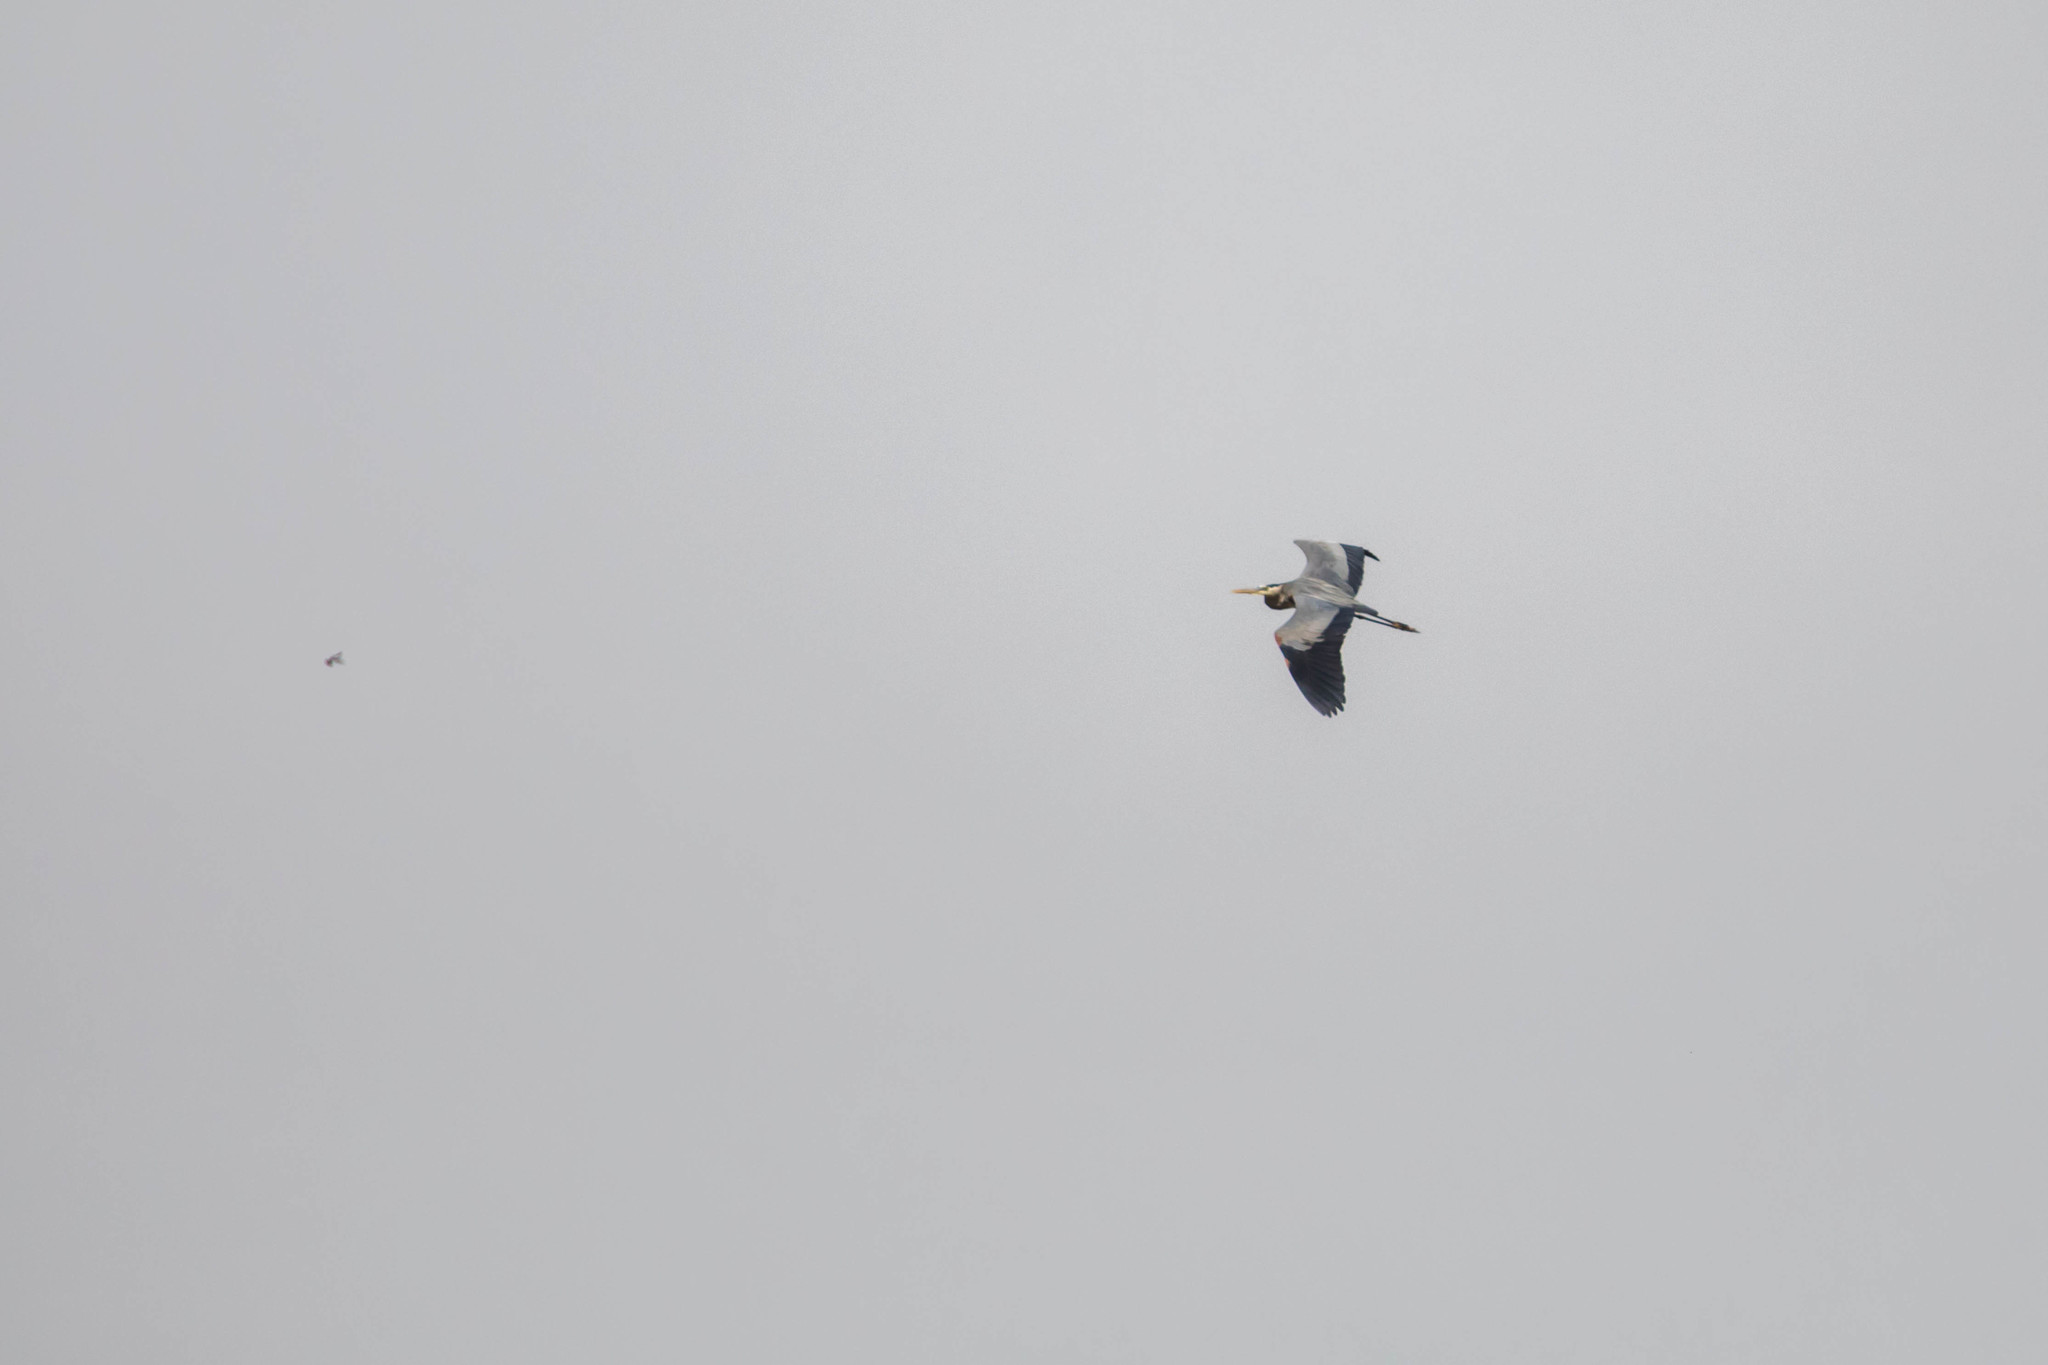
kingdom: Animalia
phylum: Chordata
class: Aves
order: Pelecaniformes
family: Ardeidae
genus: Ardea
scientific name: Ardea herodias
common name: Great blue heron
